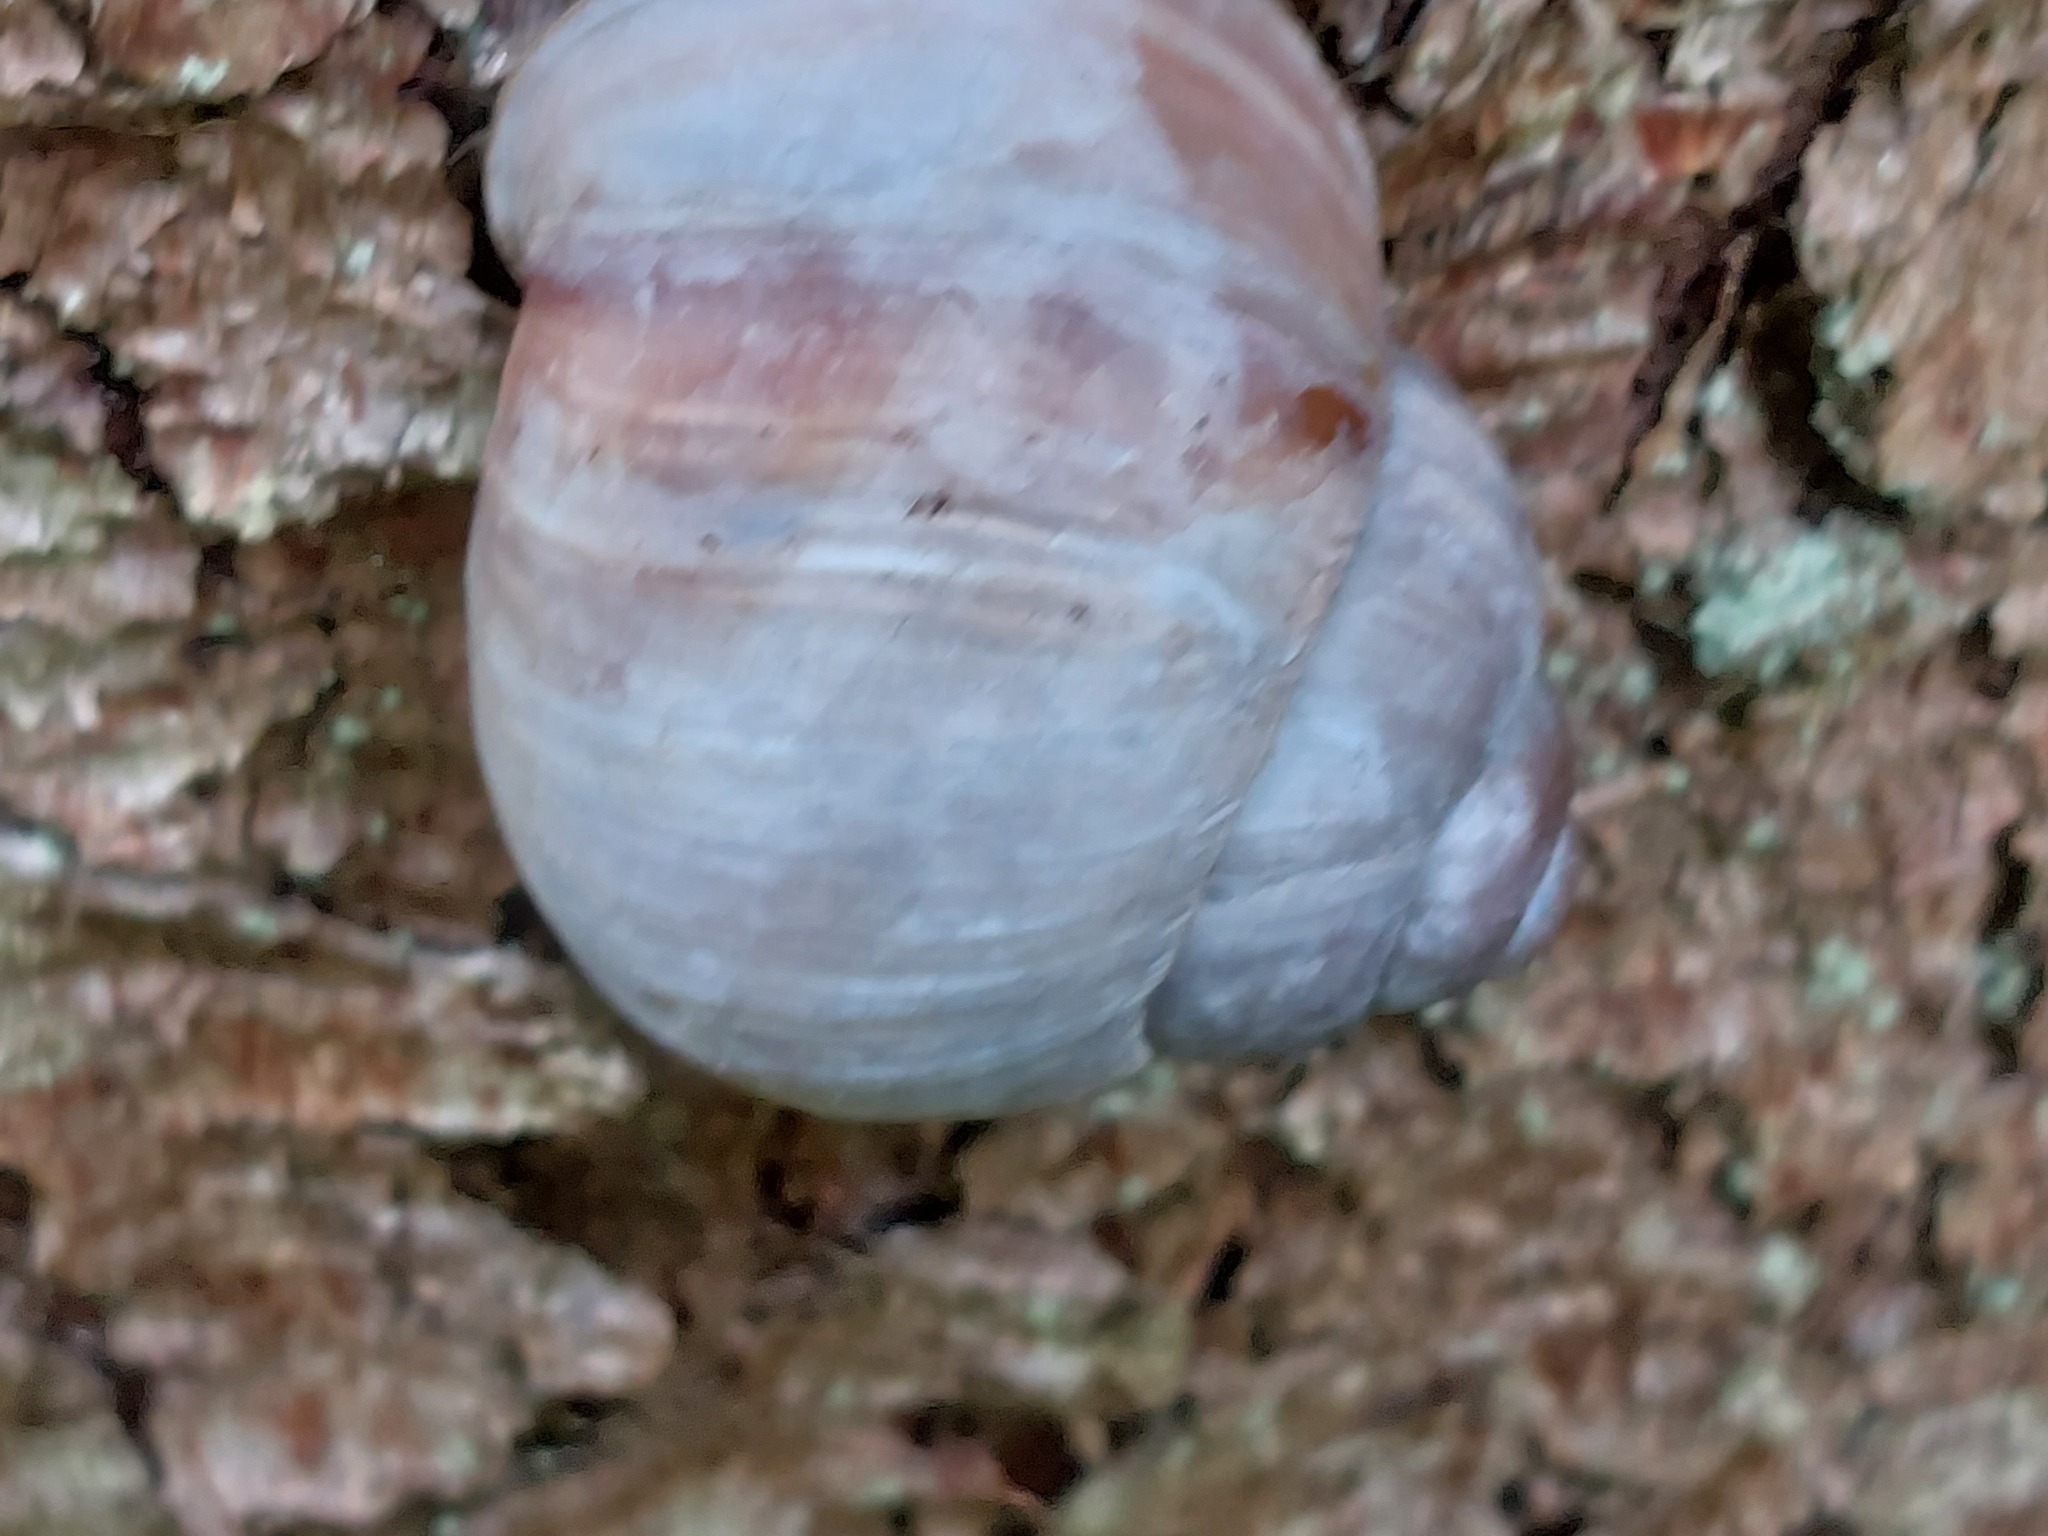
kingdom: Animalia
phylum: Mollusca
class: Gastropoda
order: Stylommatophora
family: Helicidae
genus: Helix
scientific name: Helix pomatia
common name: Roman snail
